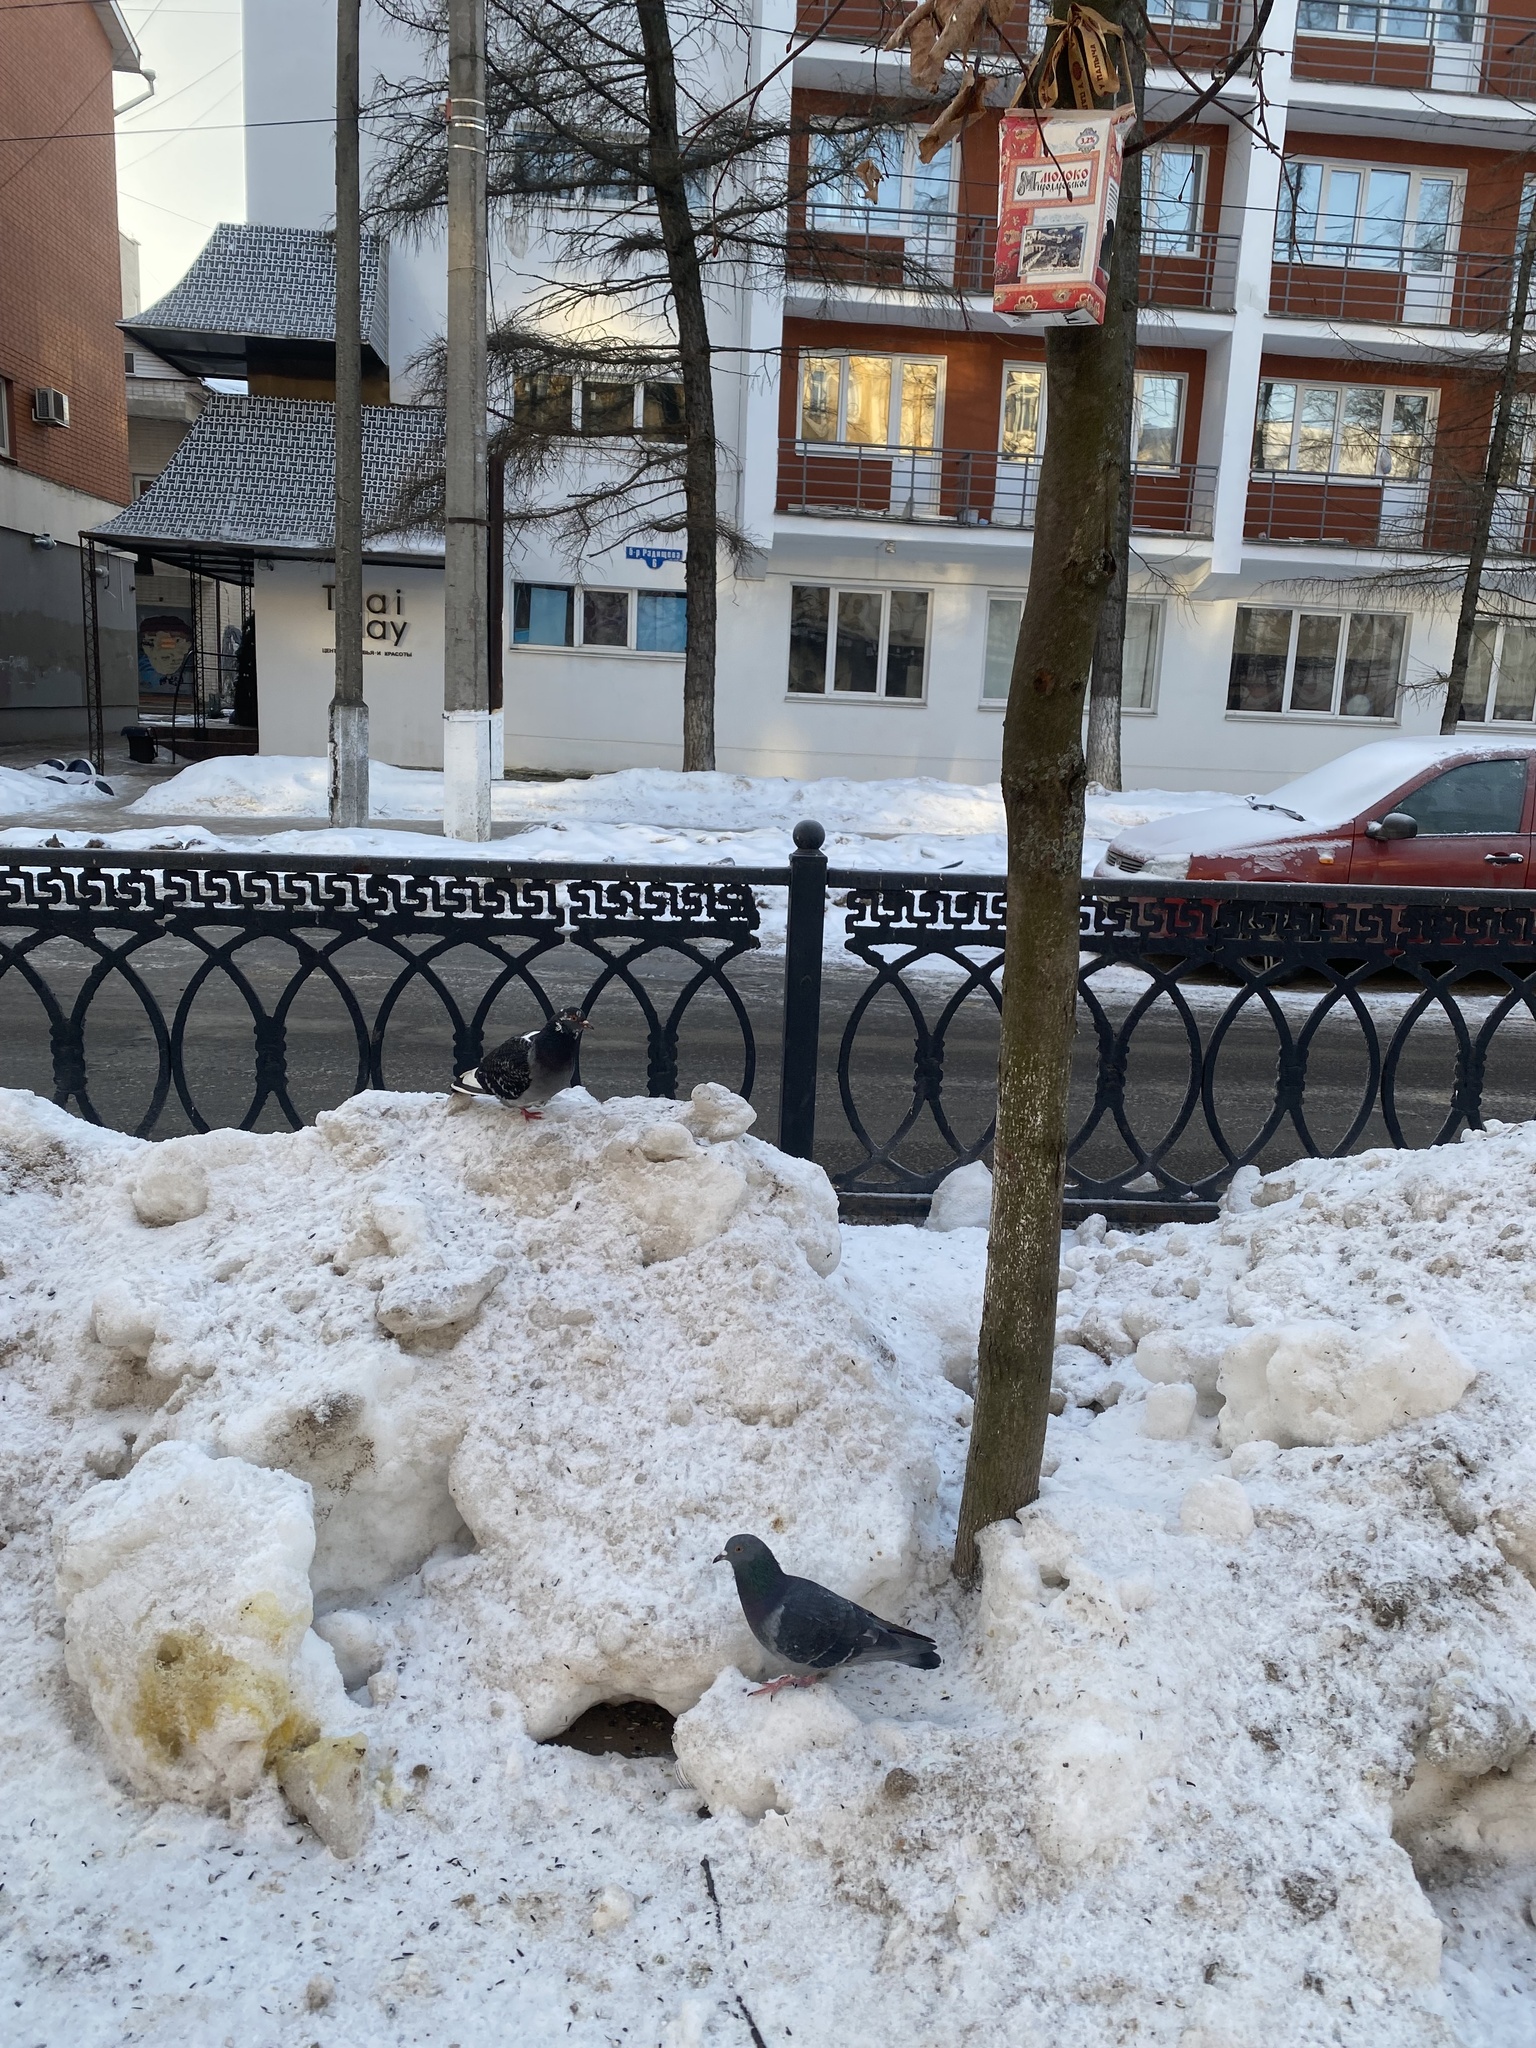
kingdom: Animalia
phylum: Chordata
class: Aves
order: Columbiformes
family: Columbidae
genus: Columba
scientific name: Columba livia
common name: Rock pigeon
